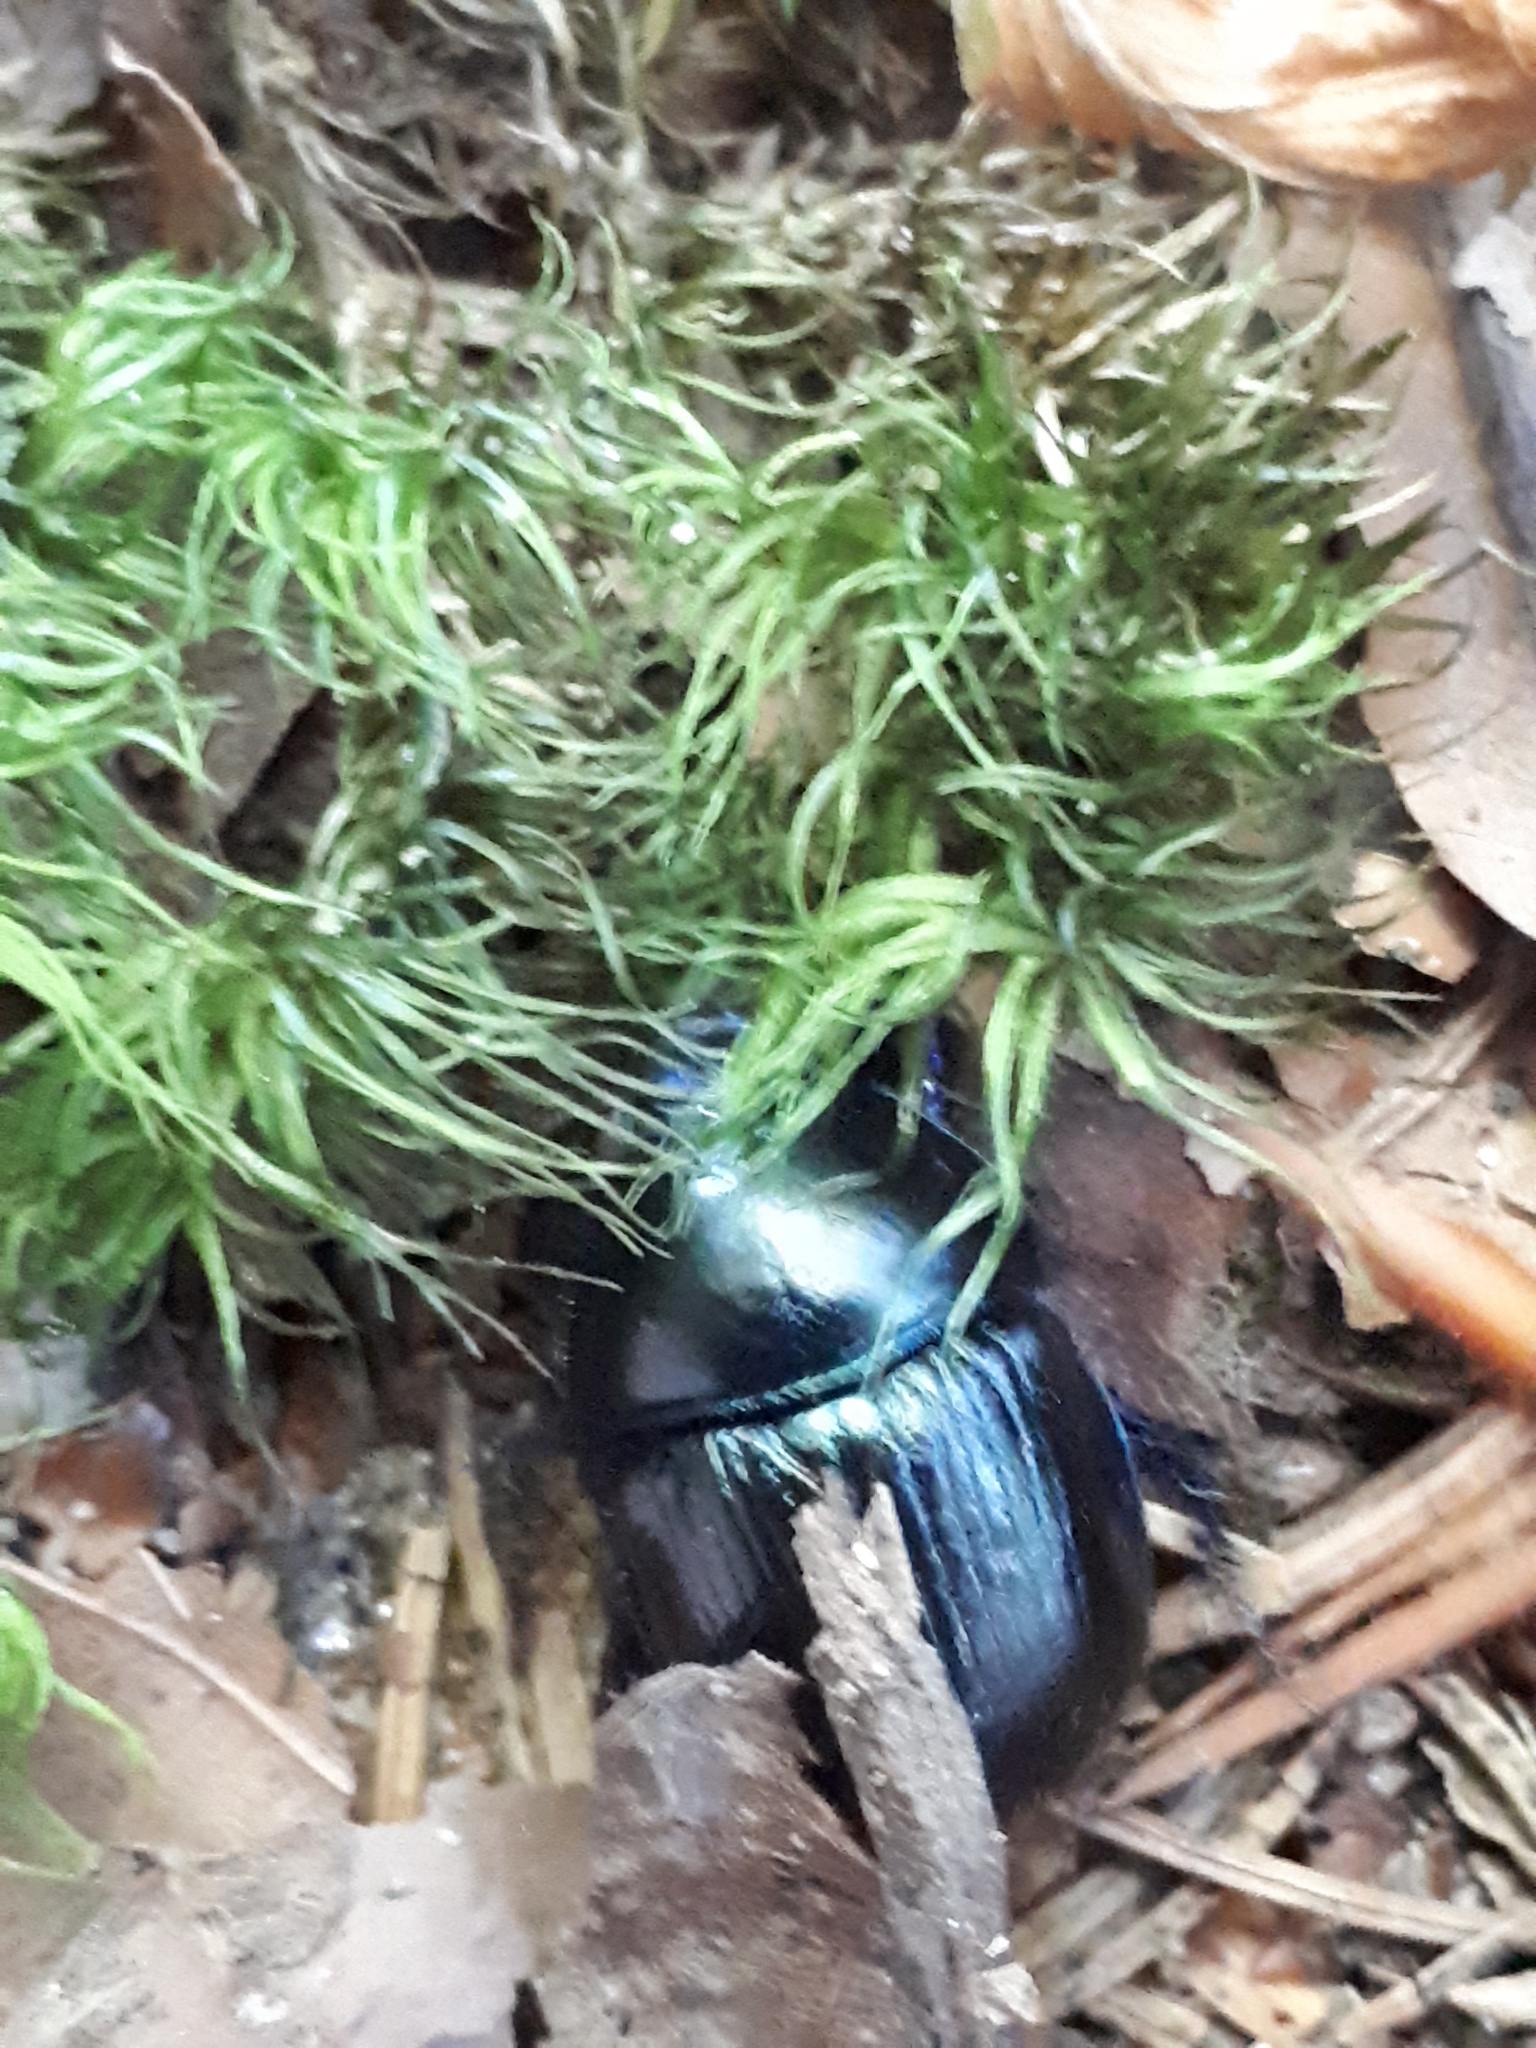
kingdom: Animalia
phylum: Arthropoda
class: Insecta
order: Coleoptera
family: Geotrupidae
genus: Anoplotrupes
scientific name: Anoplotrupes stercorosus
